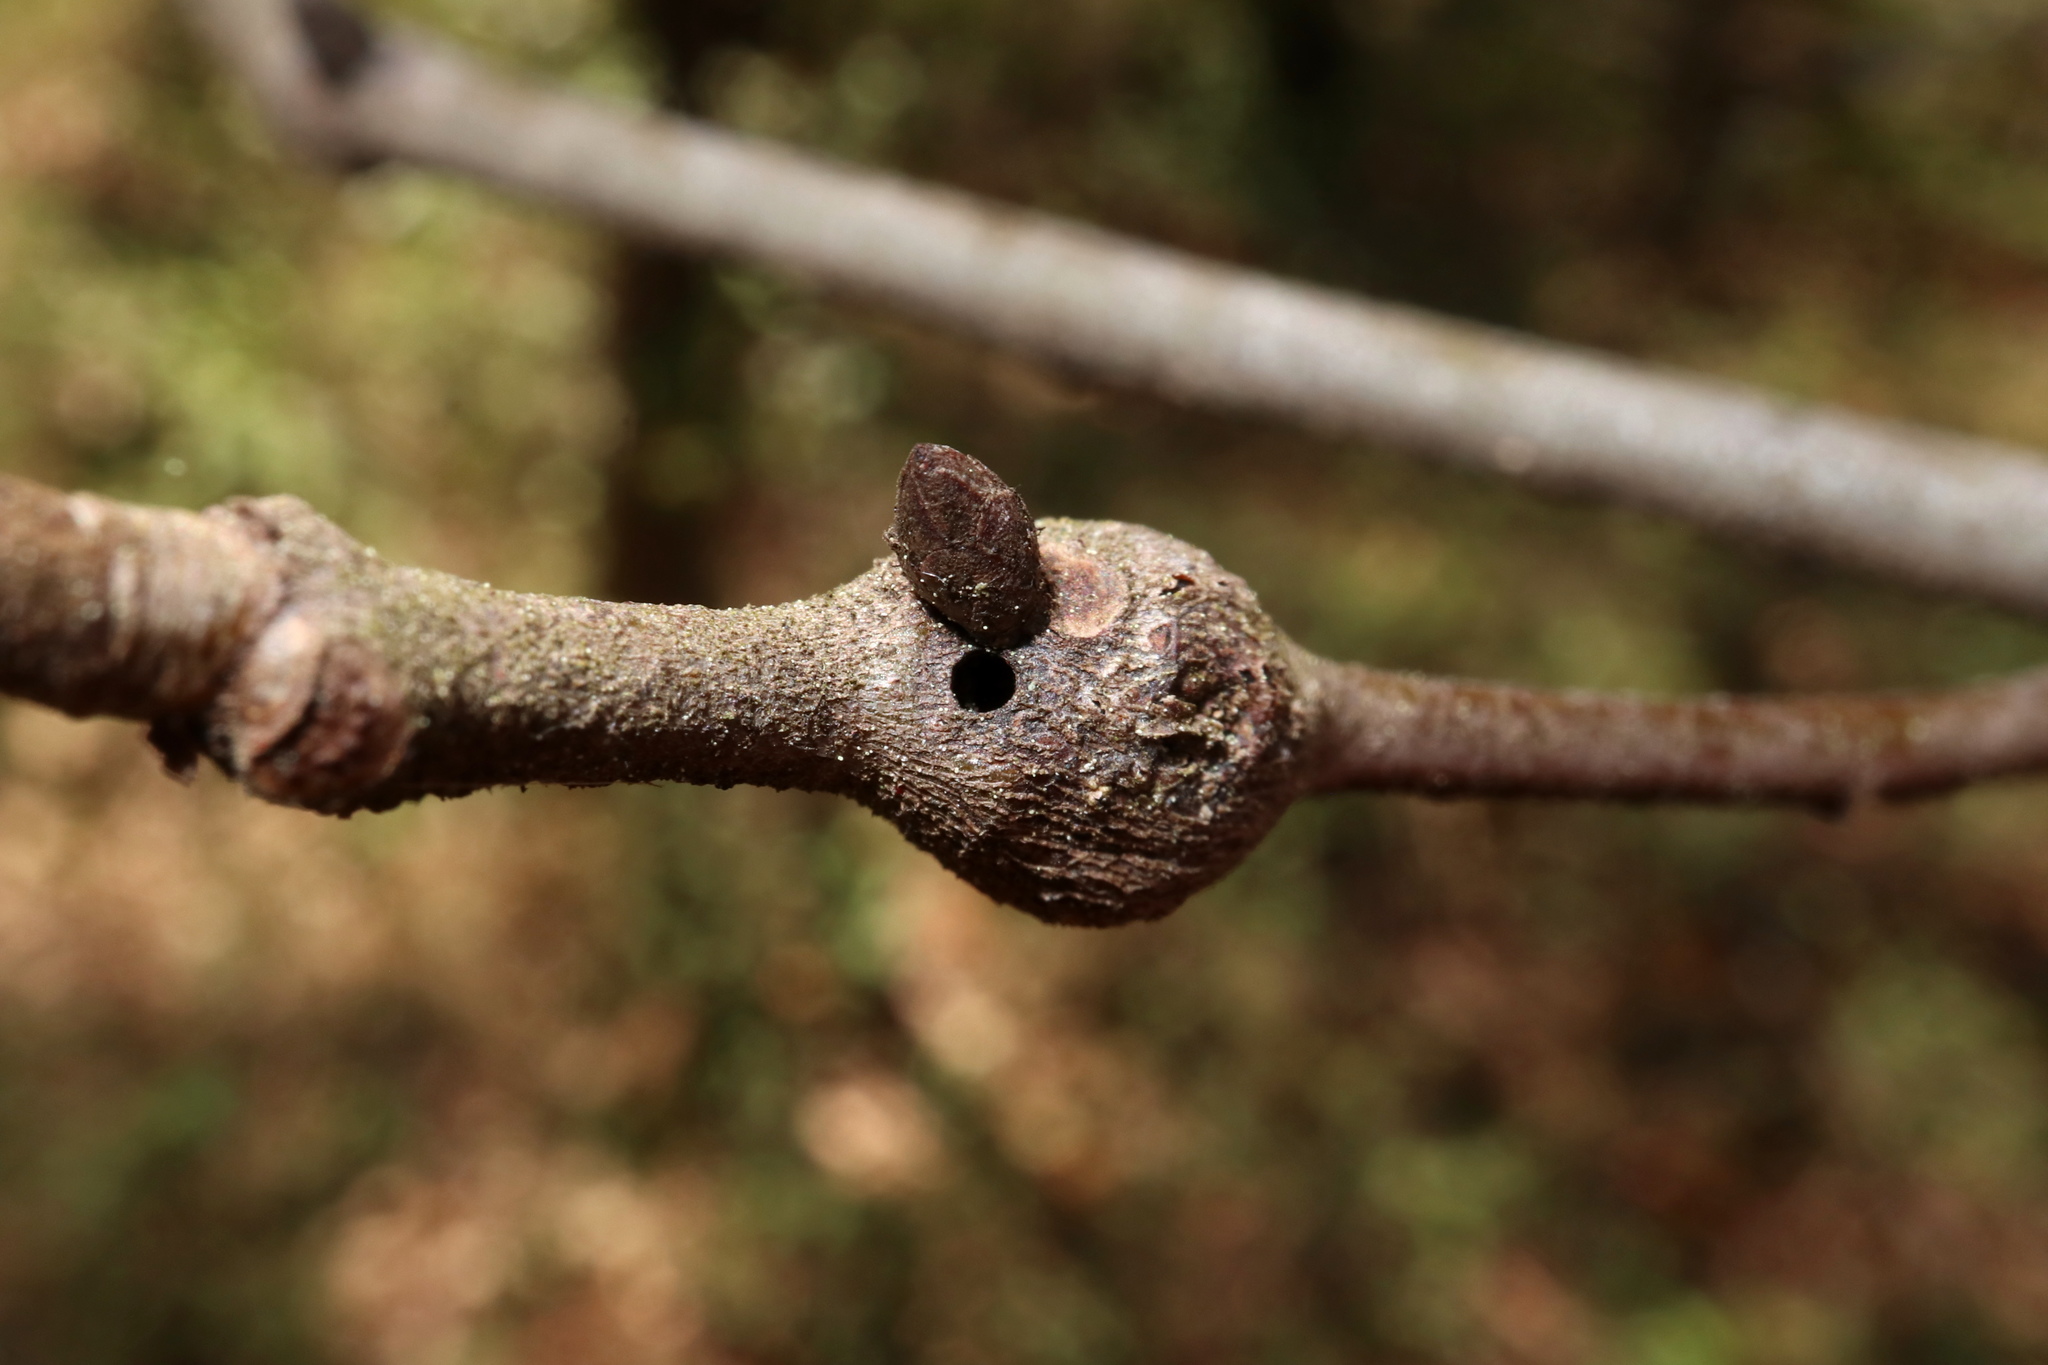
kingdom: Animalia
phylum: Arthropoda
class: Insecta
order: Hymenoptera
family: Cynipidae
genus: Zapatella
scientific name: Zapatella quercusmedullae
